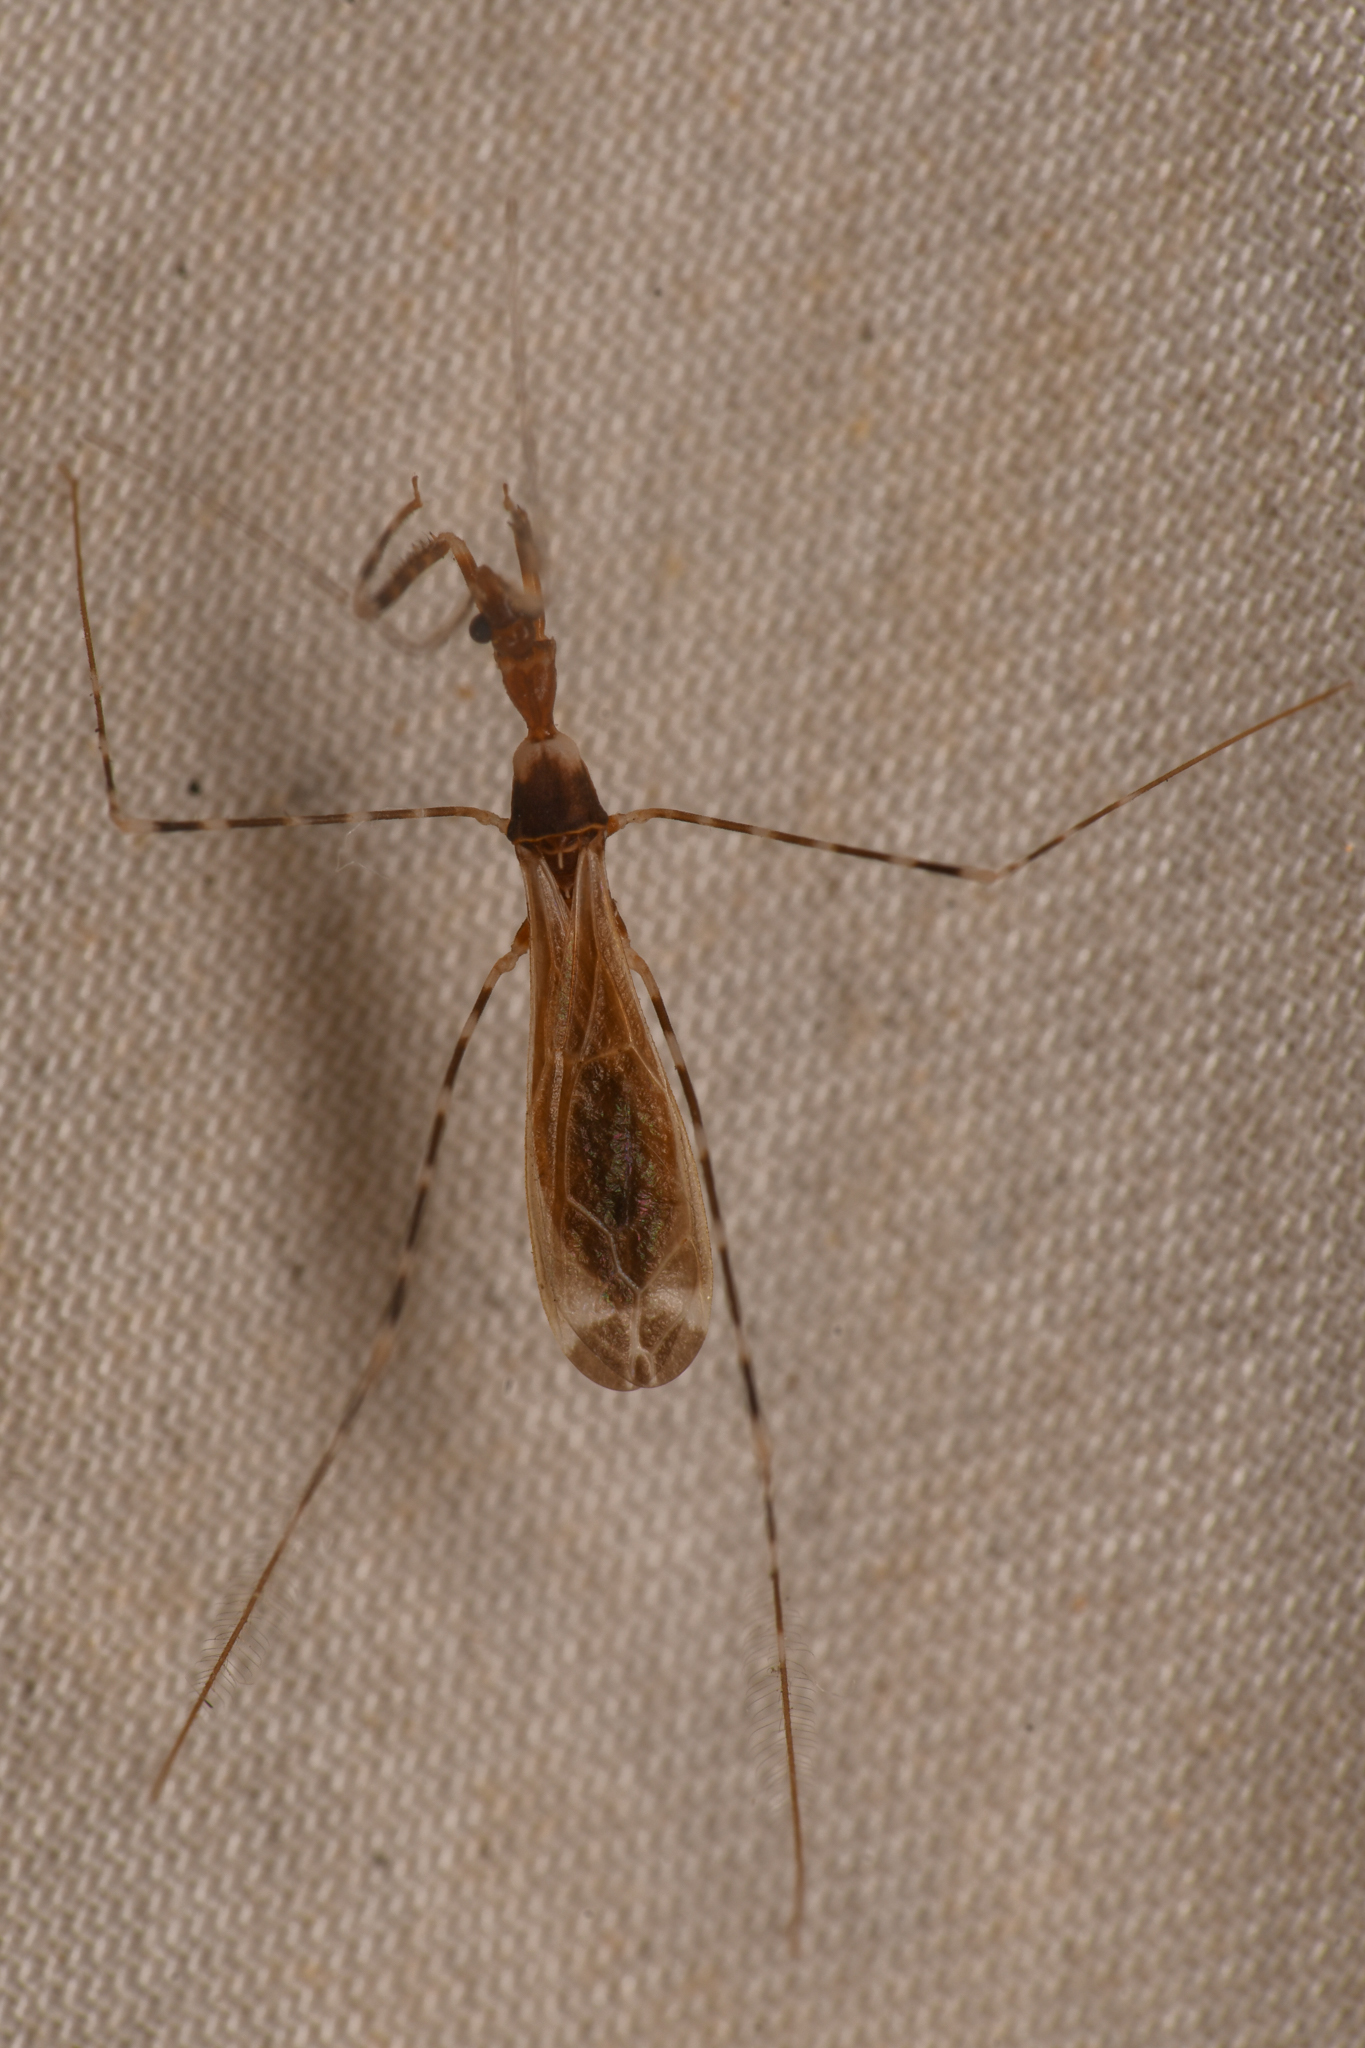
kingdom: Animalia
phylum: Arthropoda
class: Insecta
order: Hemiptera
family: Reduviidae
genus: Stenolemoides
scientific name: Stenolemoides arizonensis
